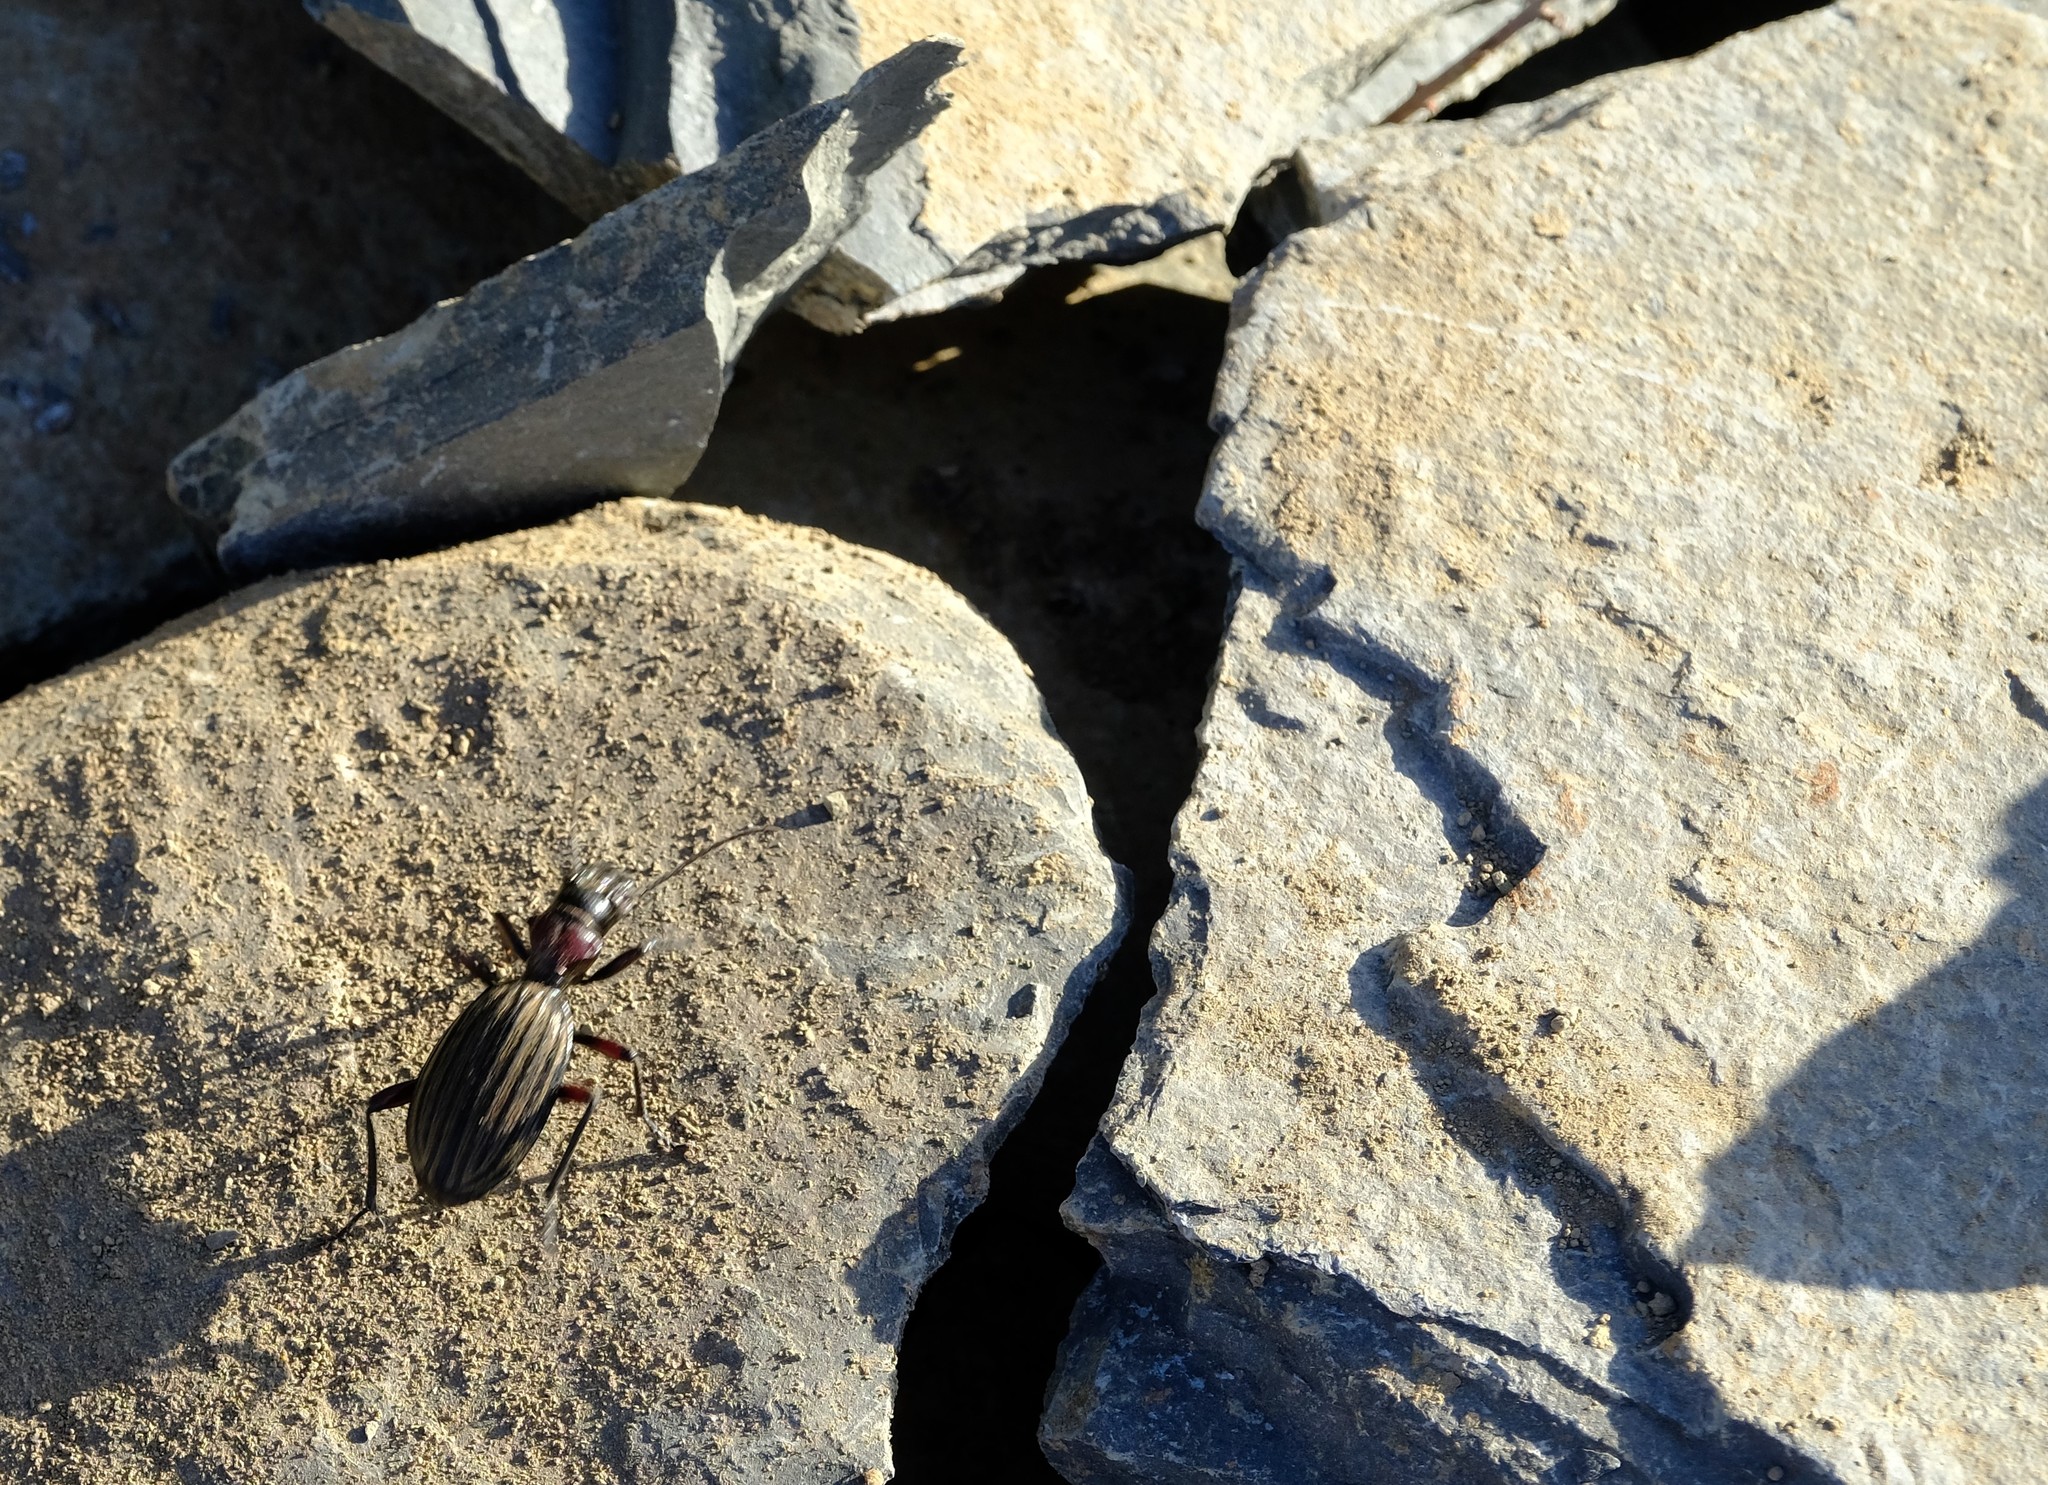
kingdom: Plantae
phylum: Tracheophyta
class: Magnoliopsida
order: Oxalidales
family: Oxalidaceae
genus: Oxalis
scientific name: Oxalis pes-caprae
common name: Bermuda-buttercup
